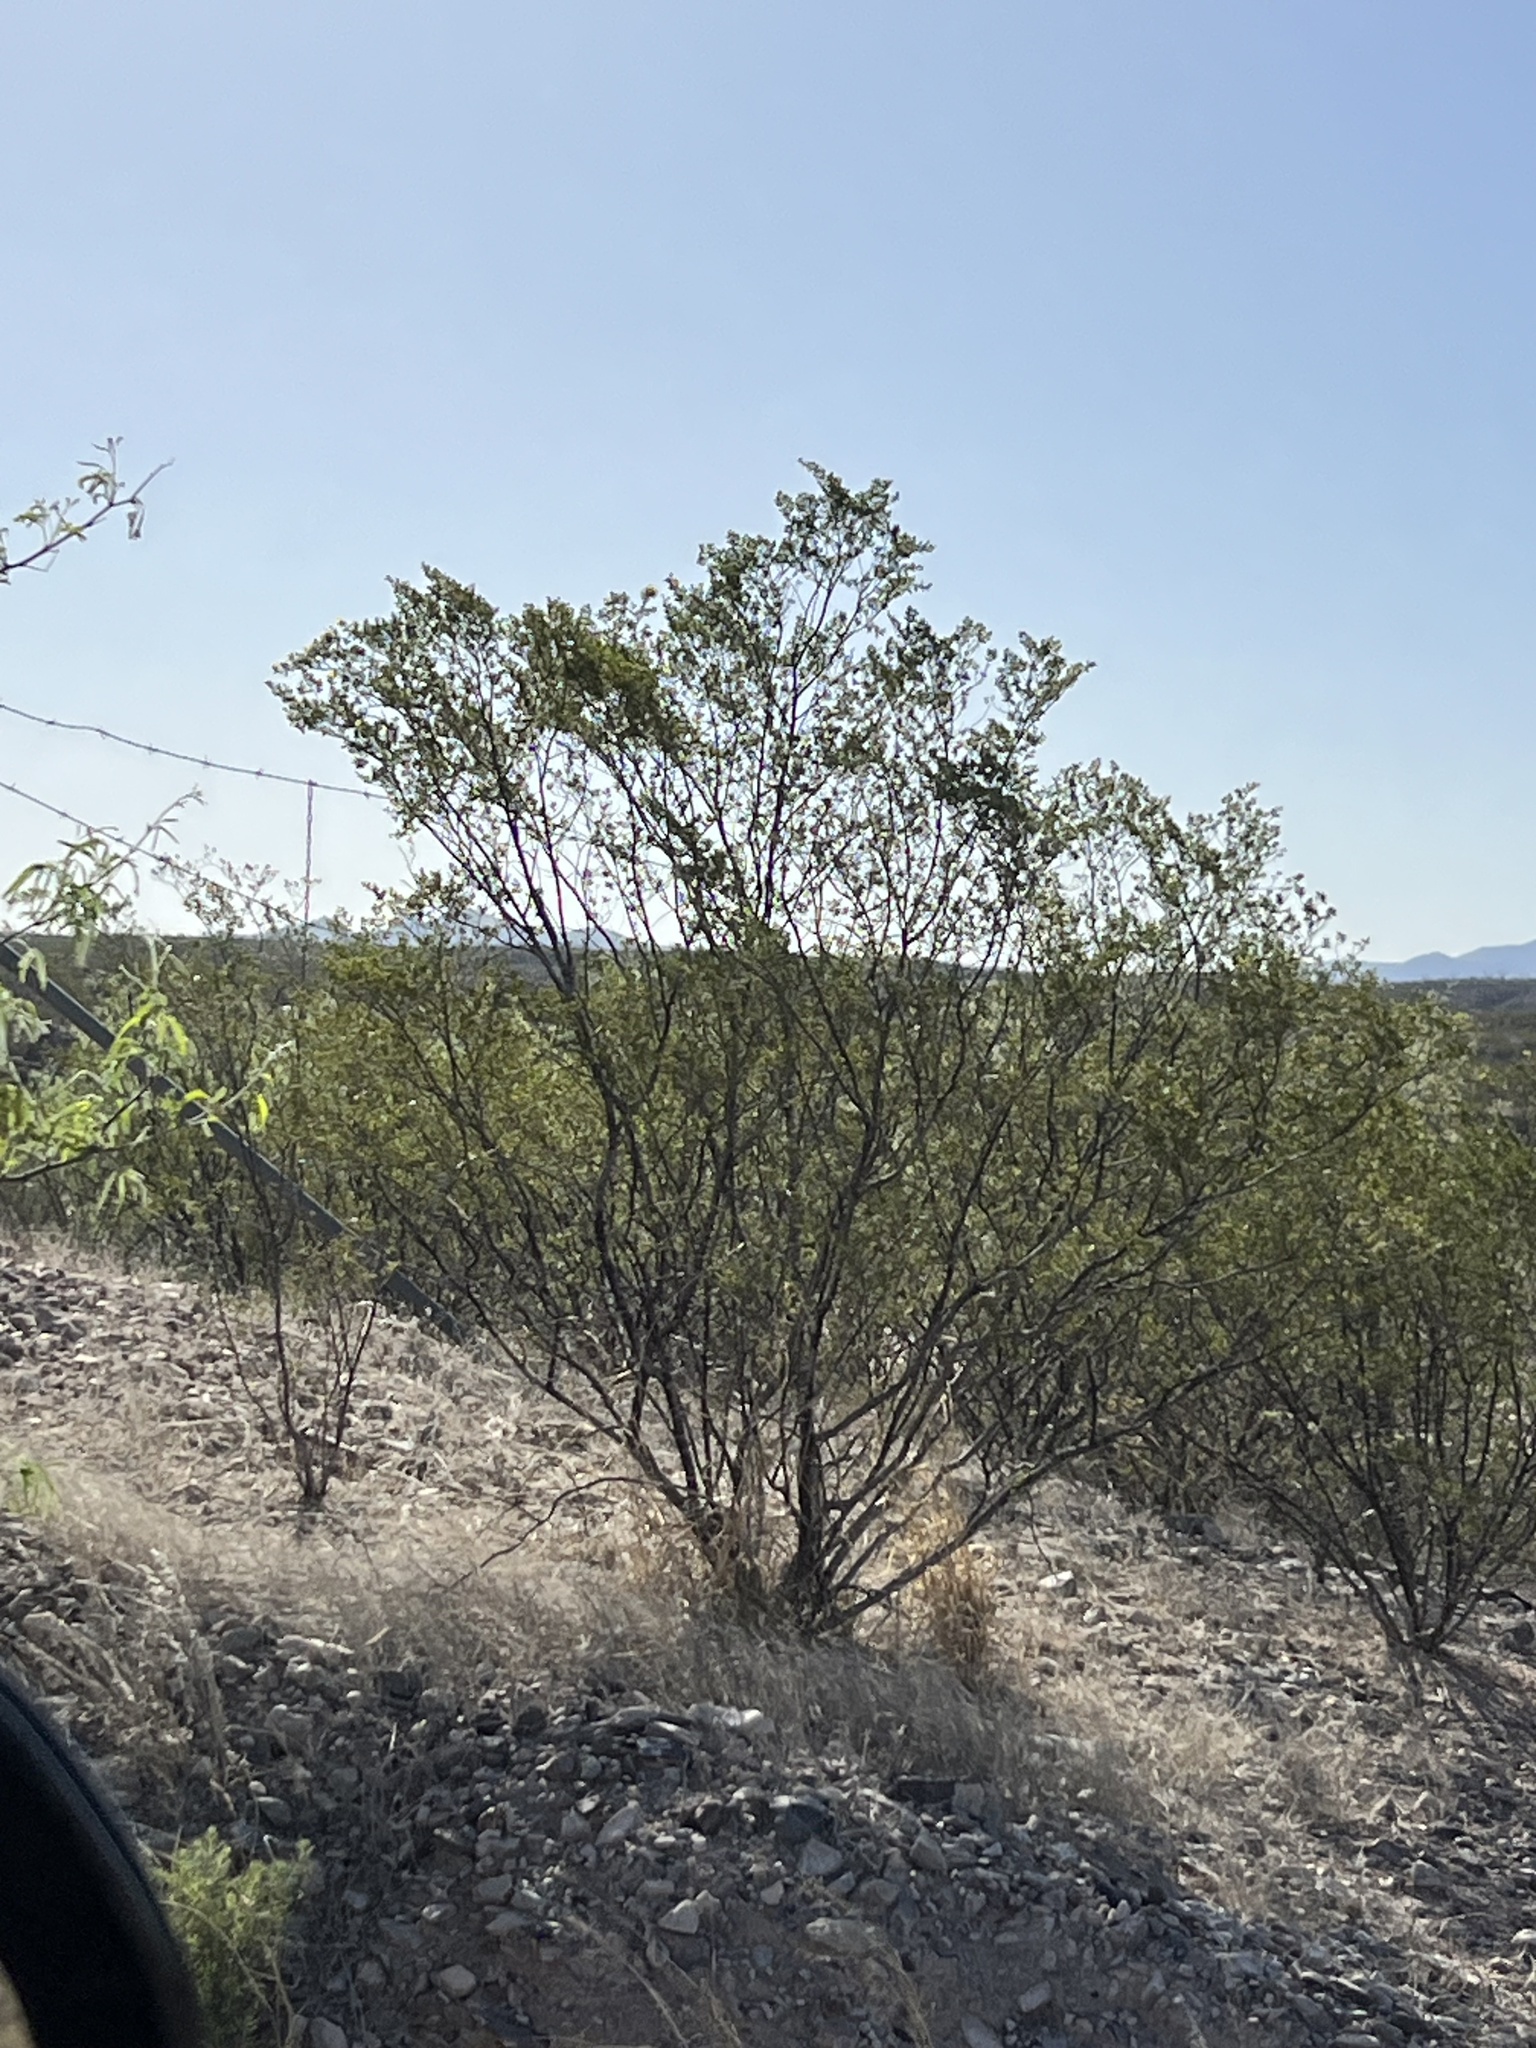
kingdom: Plantae
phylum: Tracheophyta
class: Magnoliopsida
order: Zygophyllales
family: Zygophyllaceae
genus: Larrea
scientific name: Larrea tridentata
